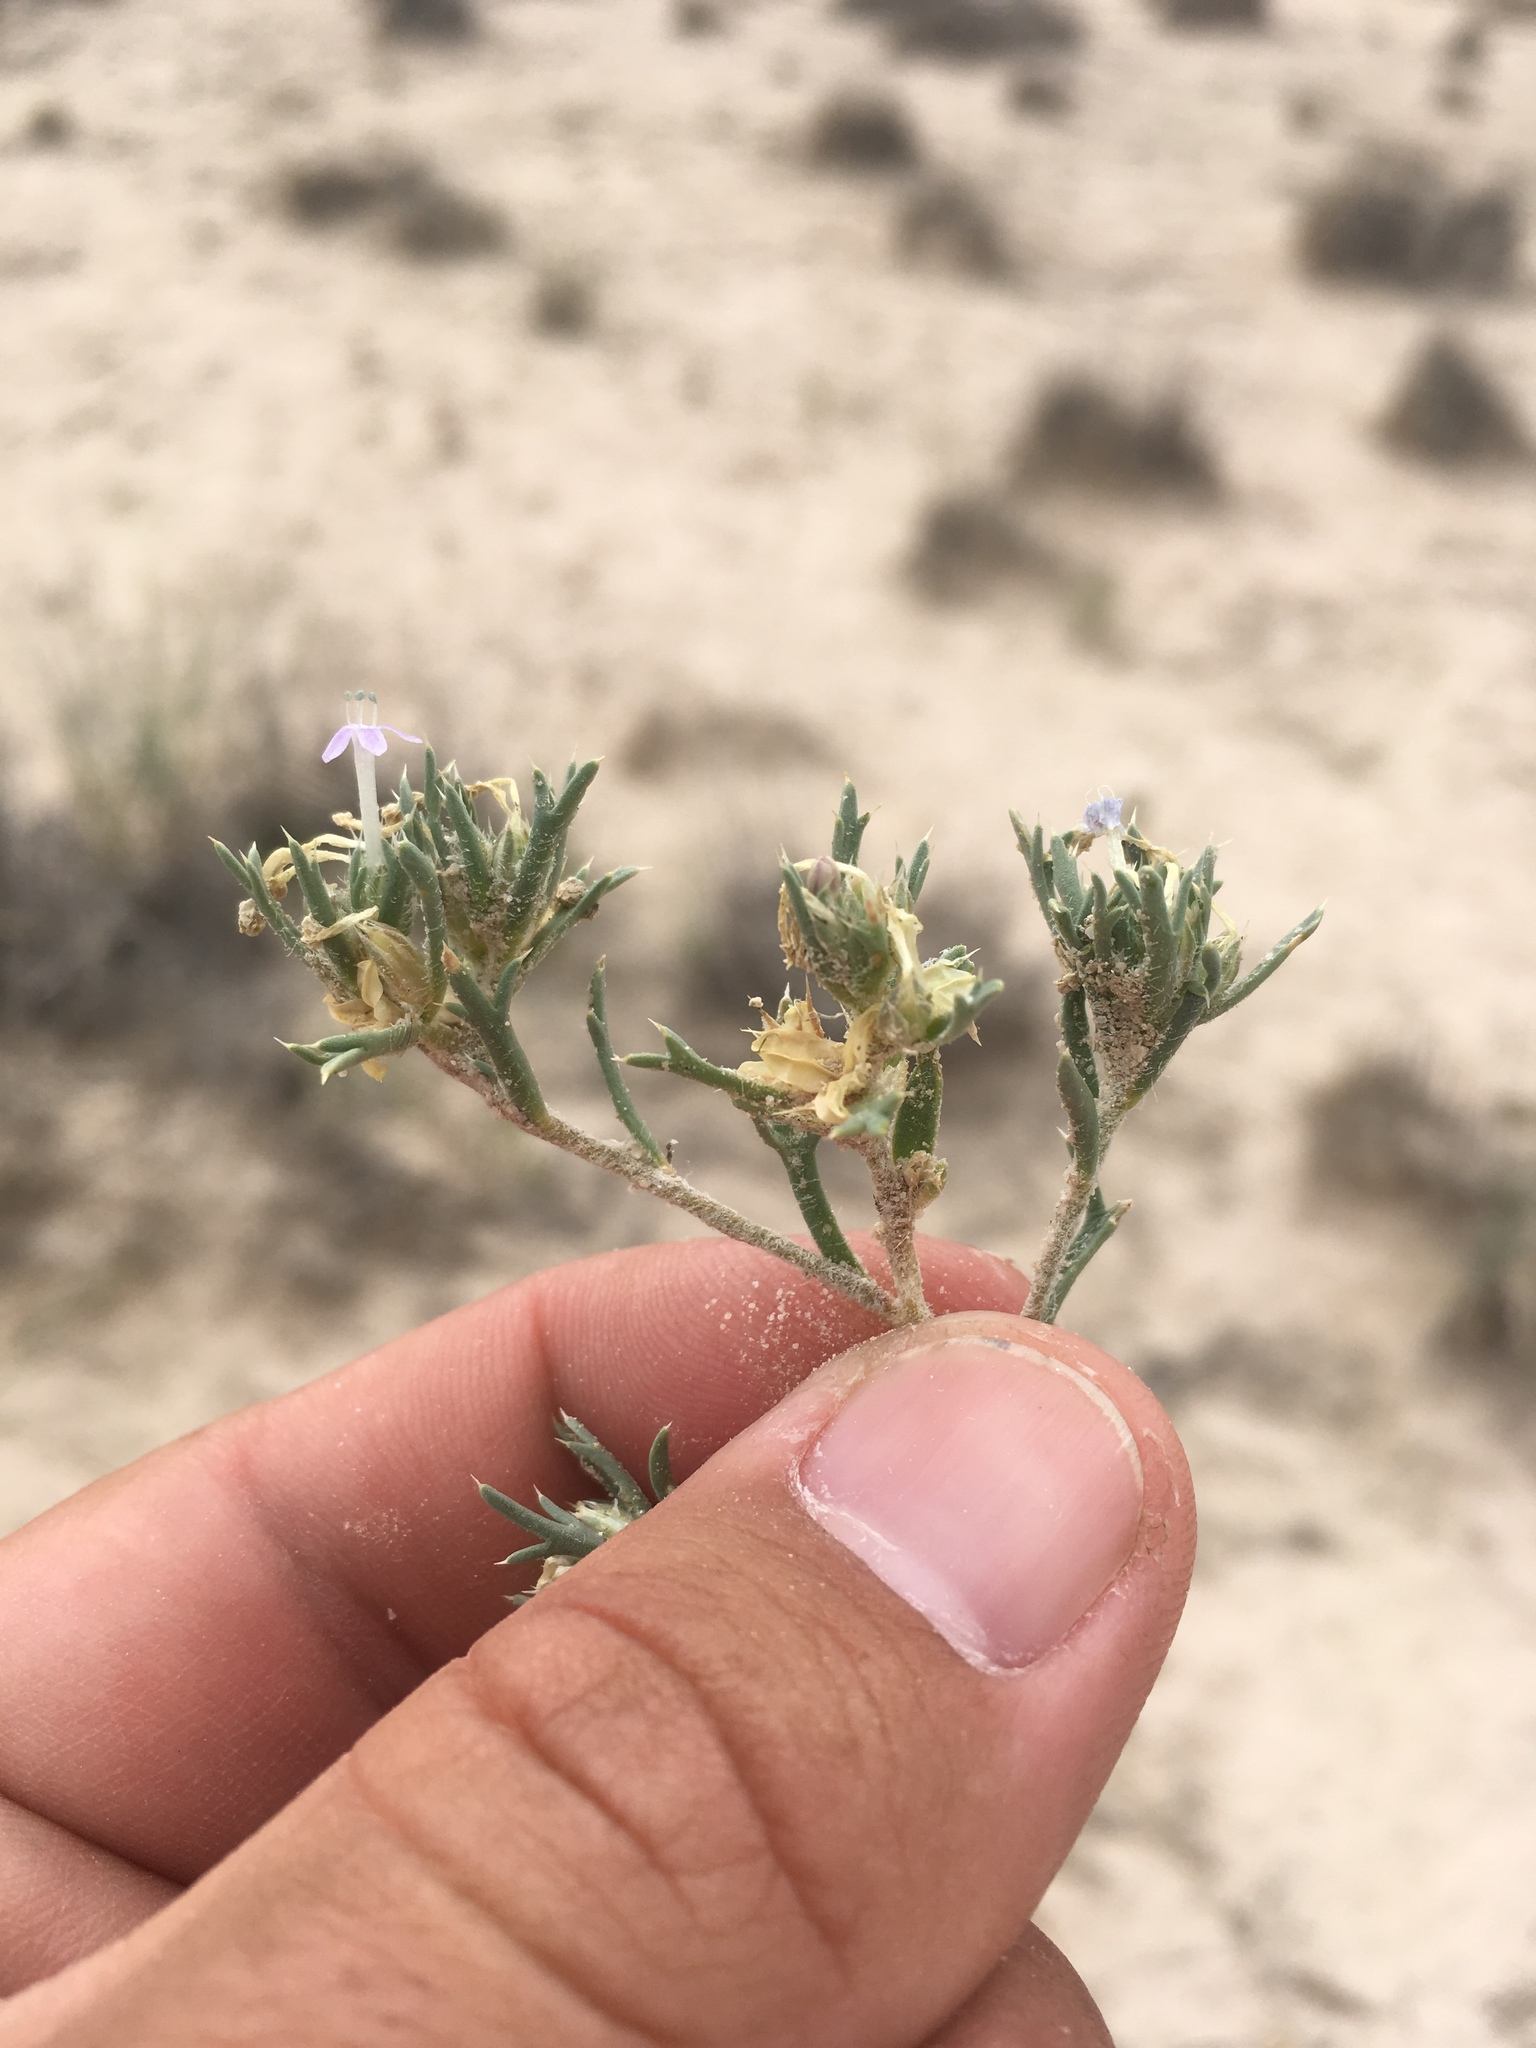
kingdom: Plantae
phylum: Tracheophyta
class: Magnoliopsida
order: Ericales
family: Polemoniaceae
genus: Ipomopsis
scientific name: Ipomopsis pumila
